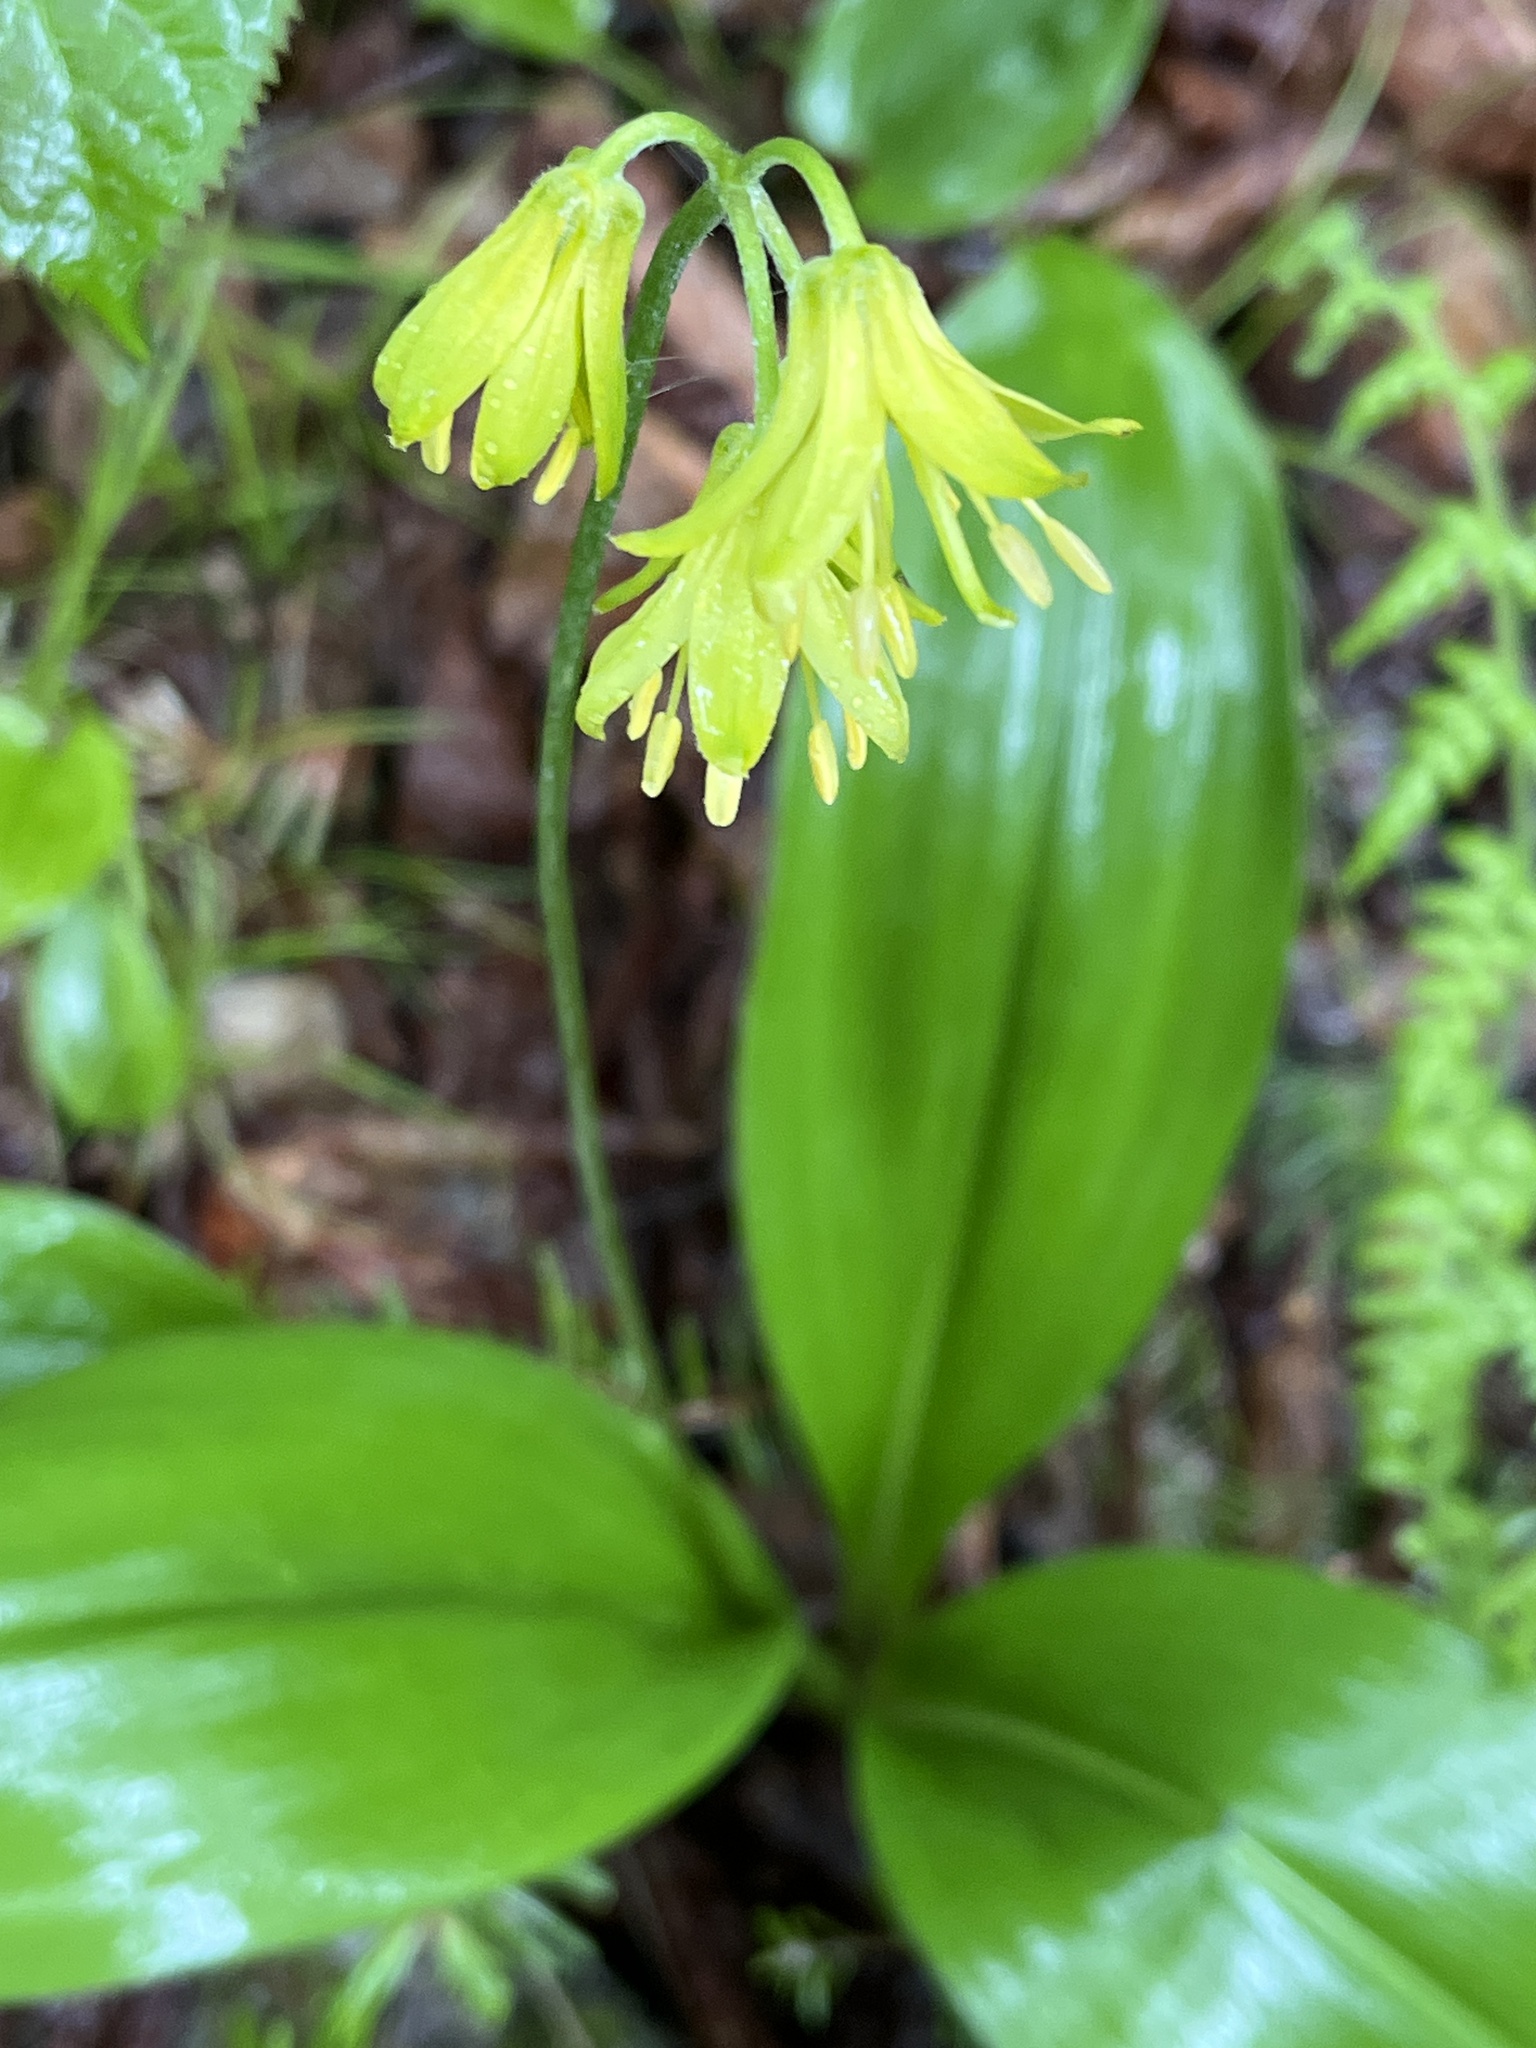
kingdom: Plantae
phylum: Tracheophyta
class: Liliopsida
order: Liliales
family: Liliaceae
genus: Clintonia
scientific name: Clintonia borealis
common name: Yellow clintonia
